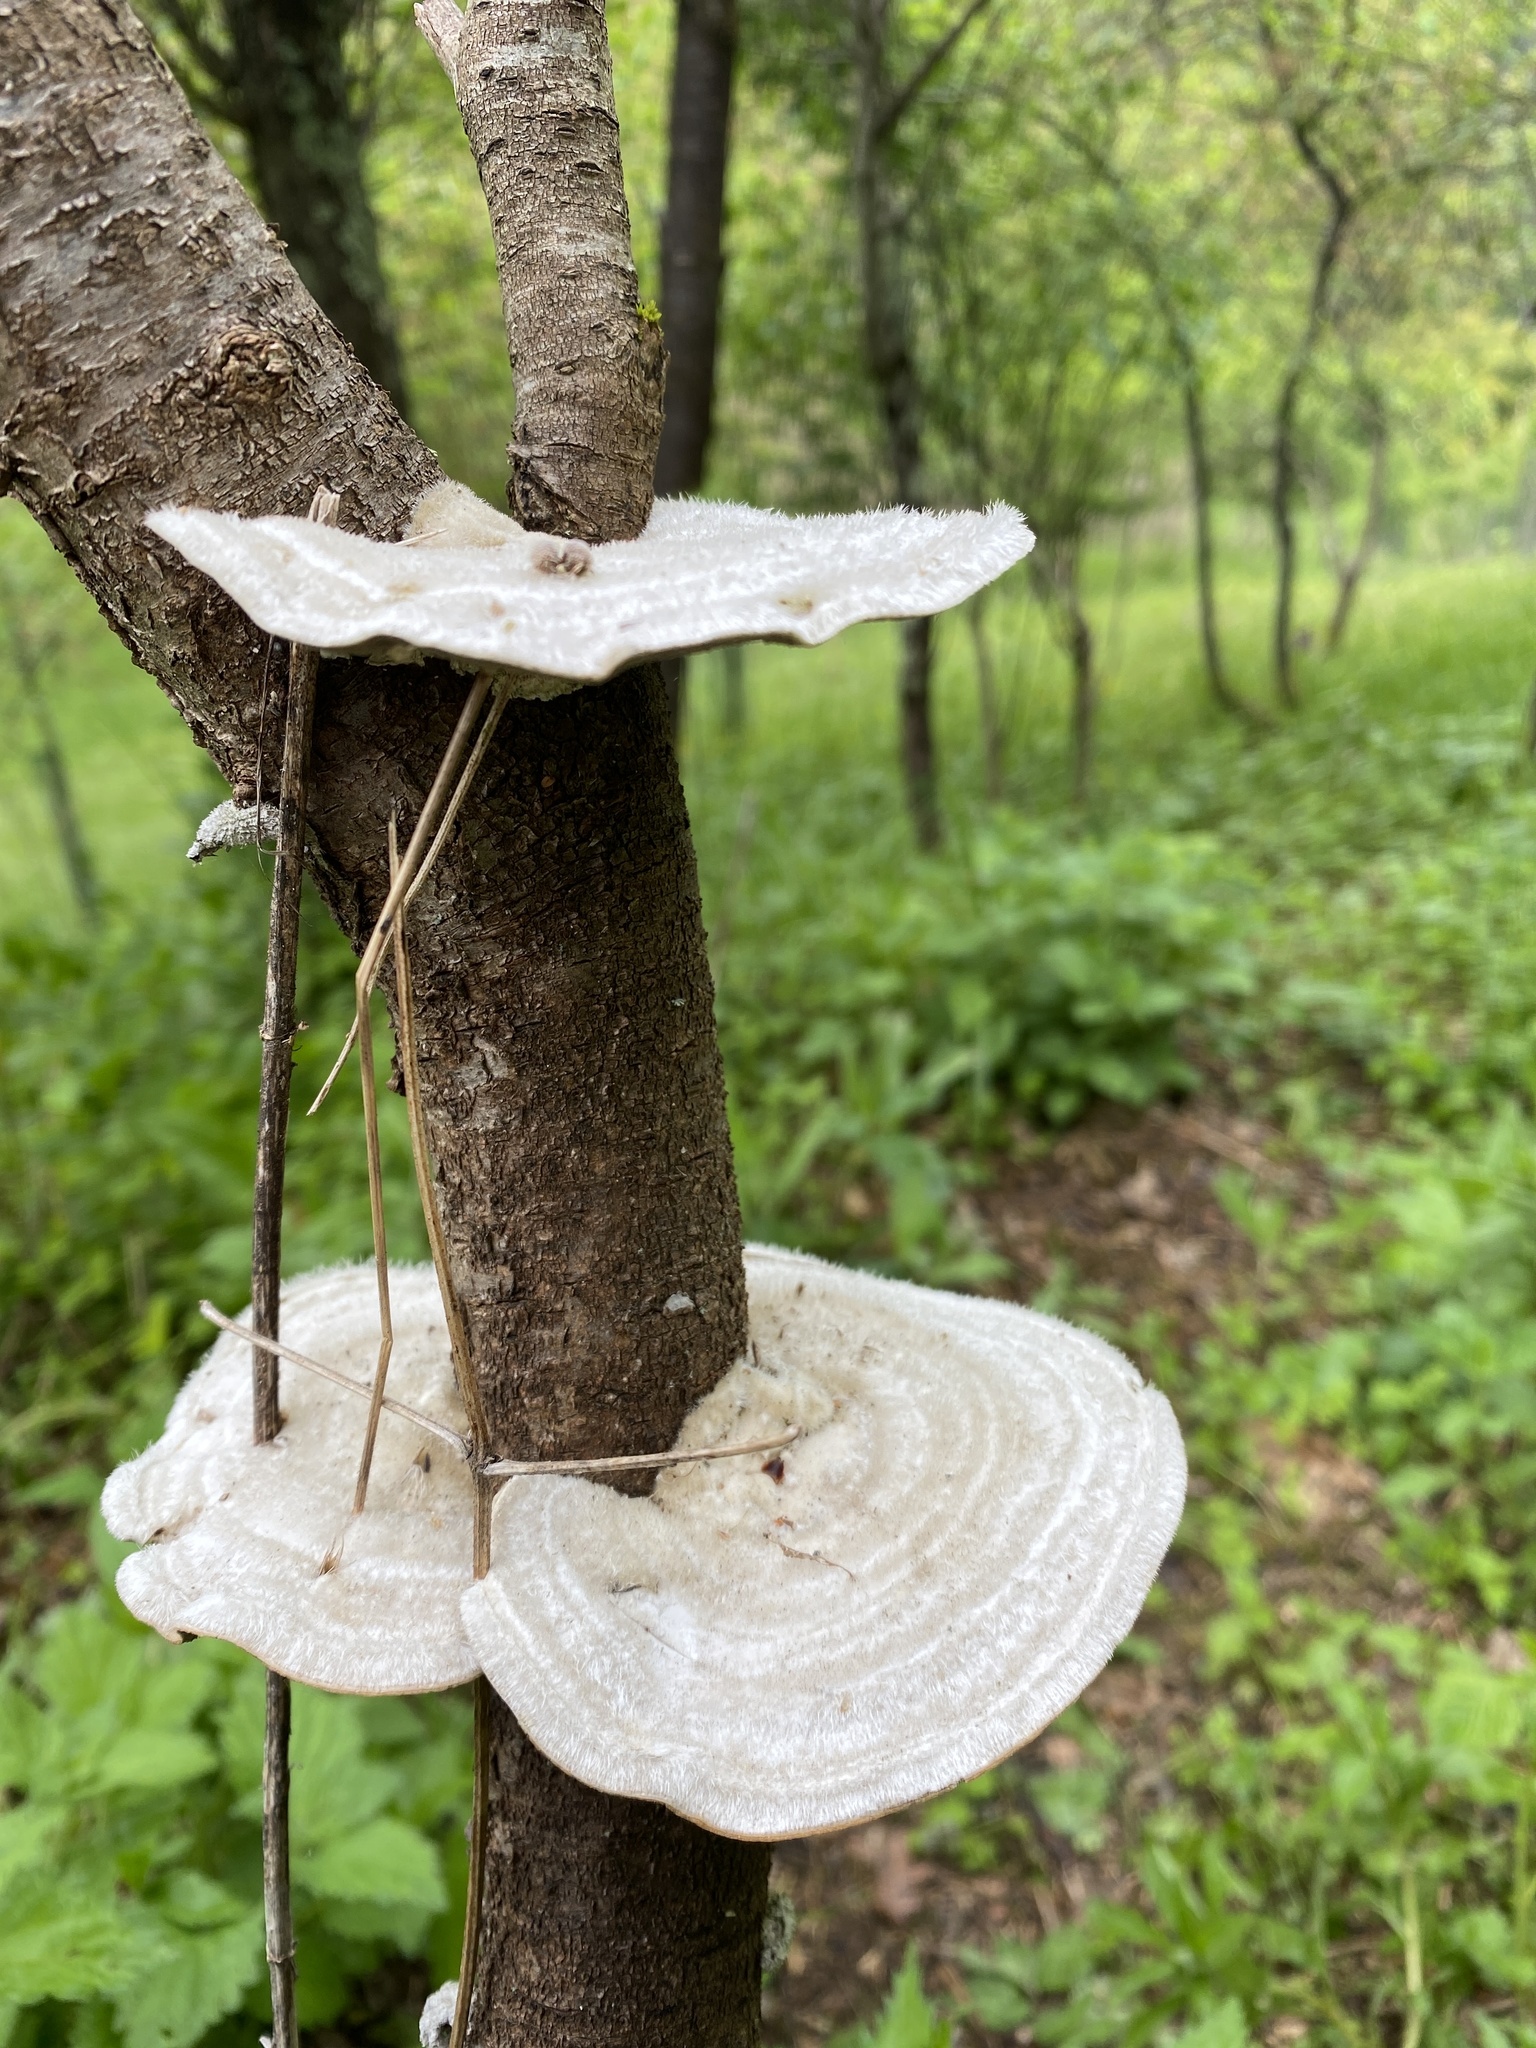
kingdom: Fungi
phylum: Basidiomycota
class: Agaricomycetes
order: Polyporales
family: Polyporaceae
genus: Trametes
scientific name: Trametes hirsuta
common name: Hairy bracket
